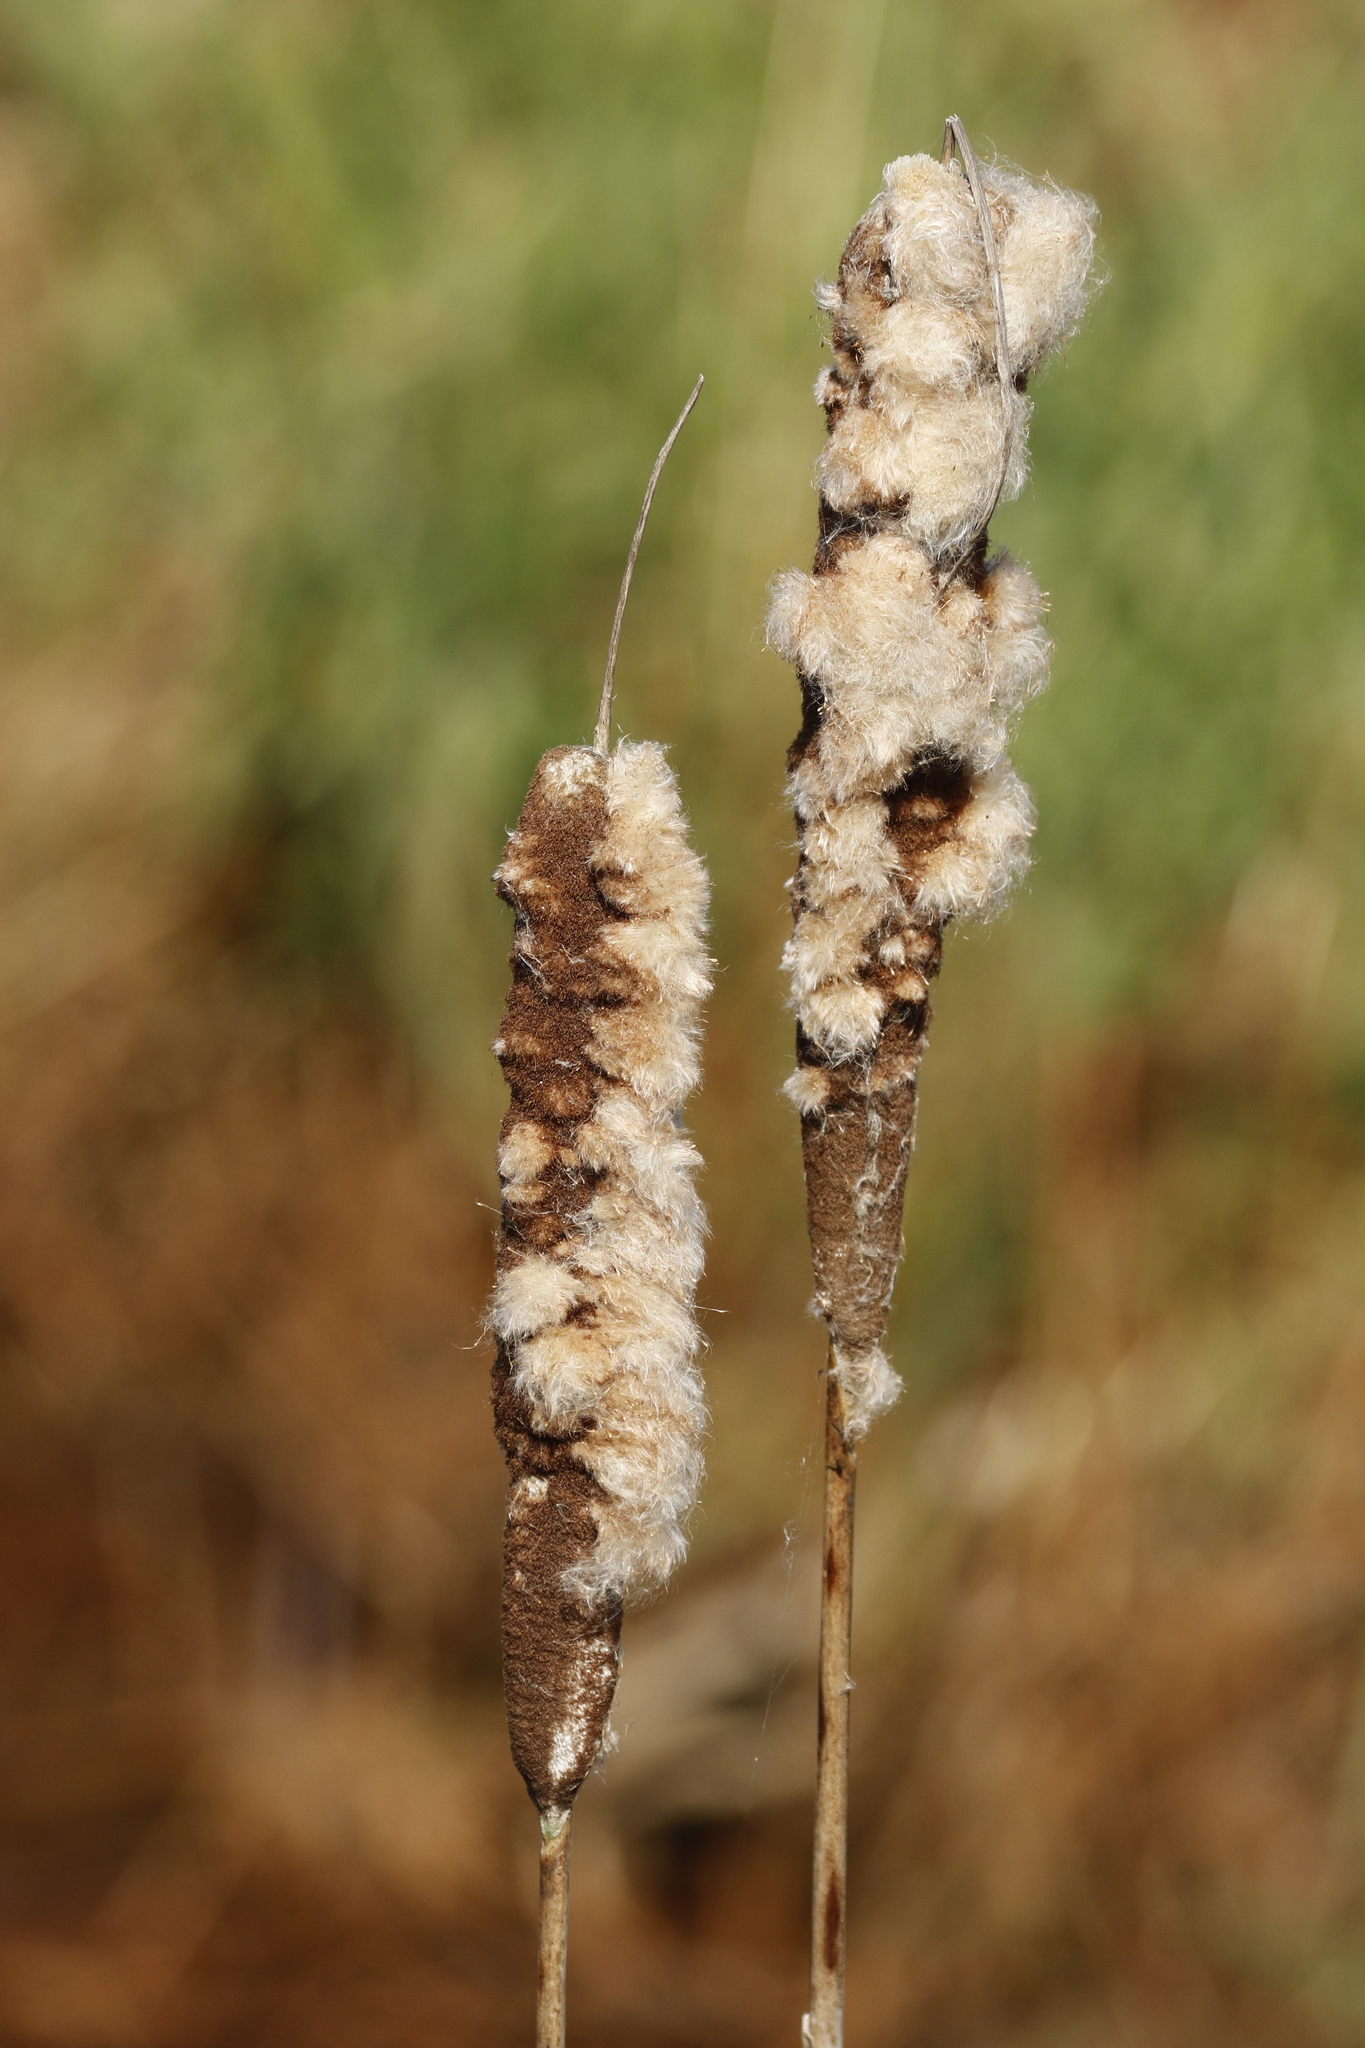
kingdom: Plantae
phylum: Tracheophyta
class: Liliopsida
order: Poales
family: Typhaceae
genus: Typha
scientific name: Typha latifolia
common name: Broadleaf cattail
